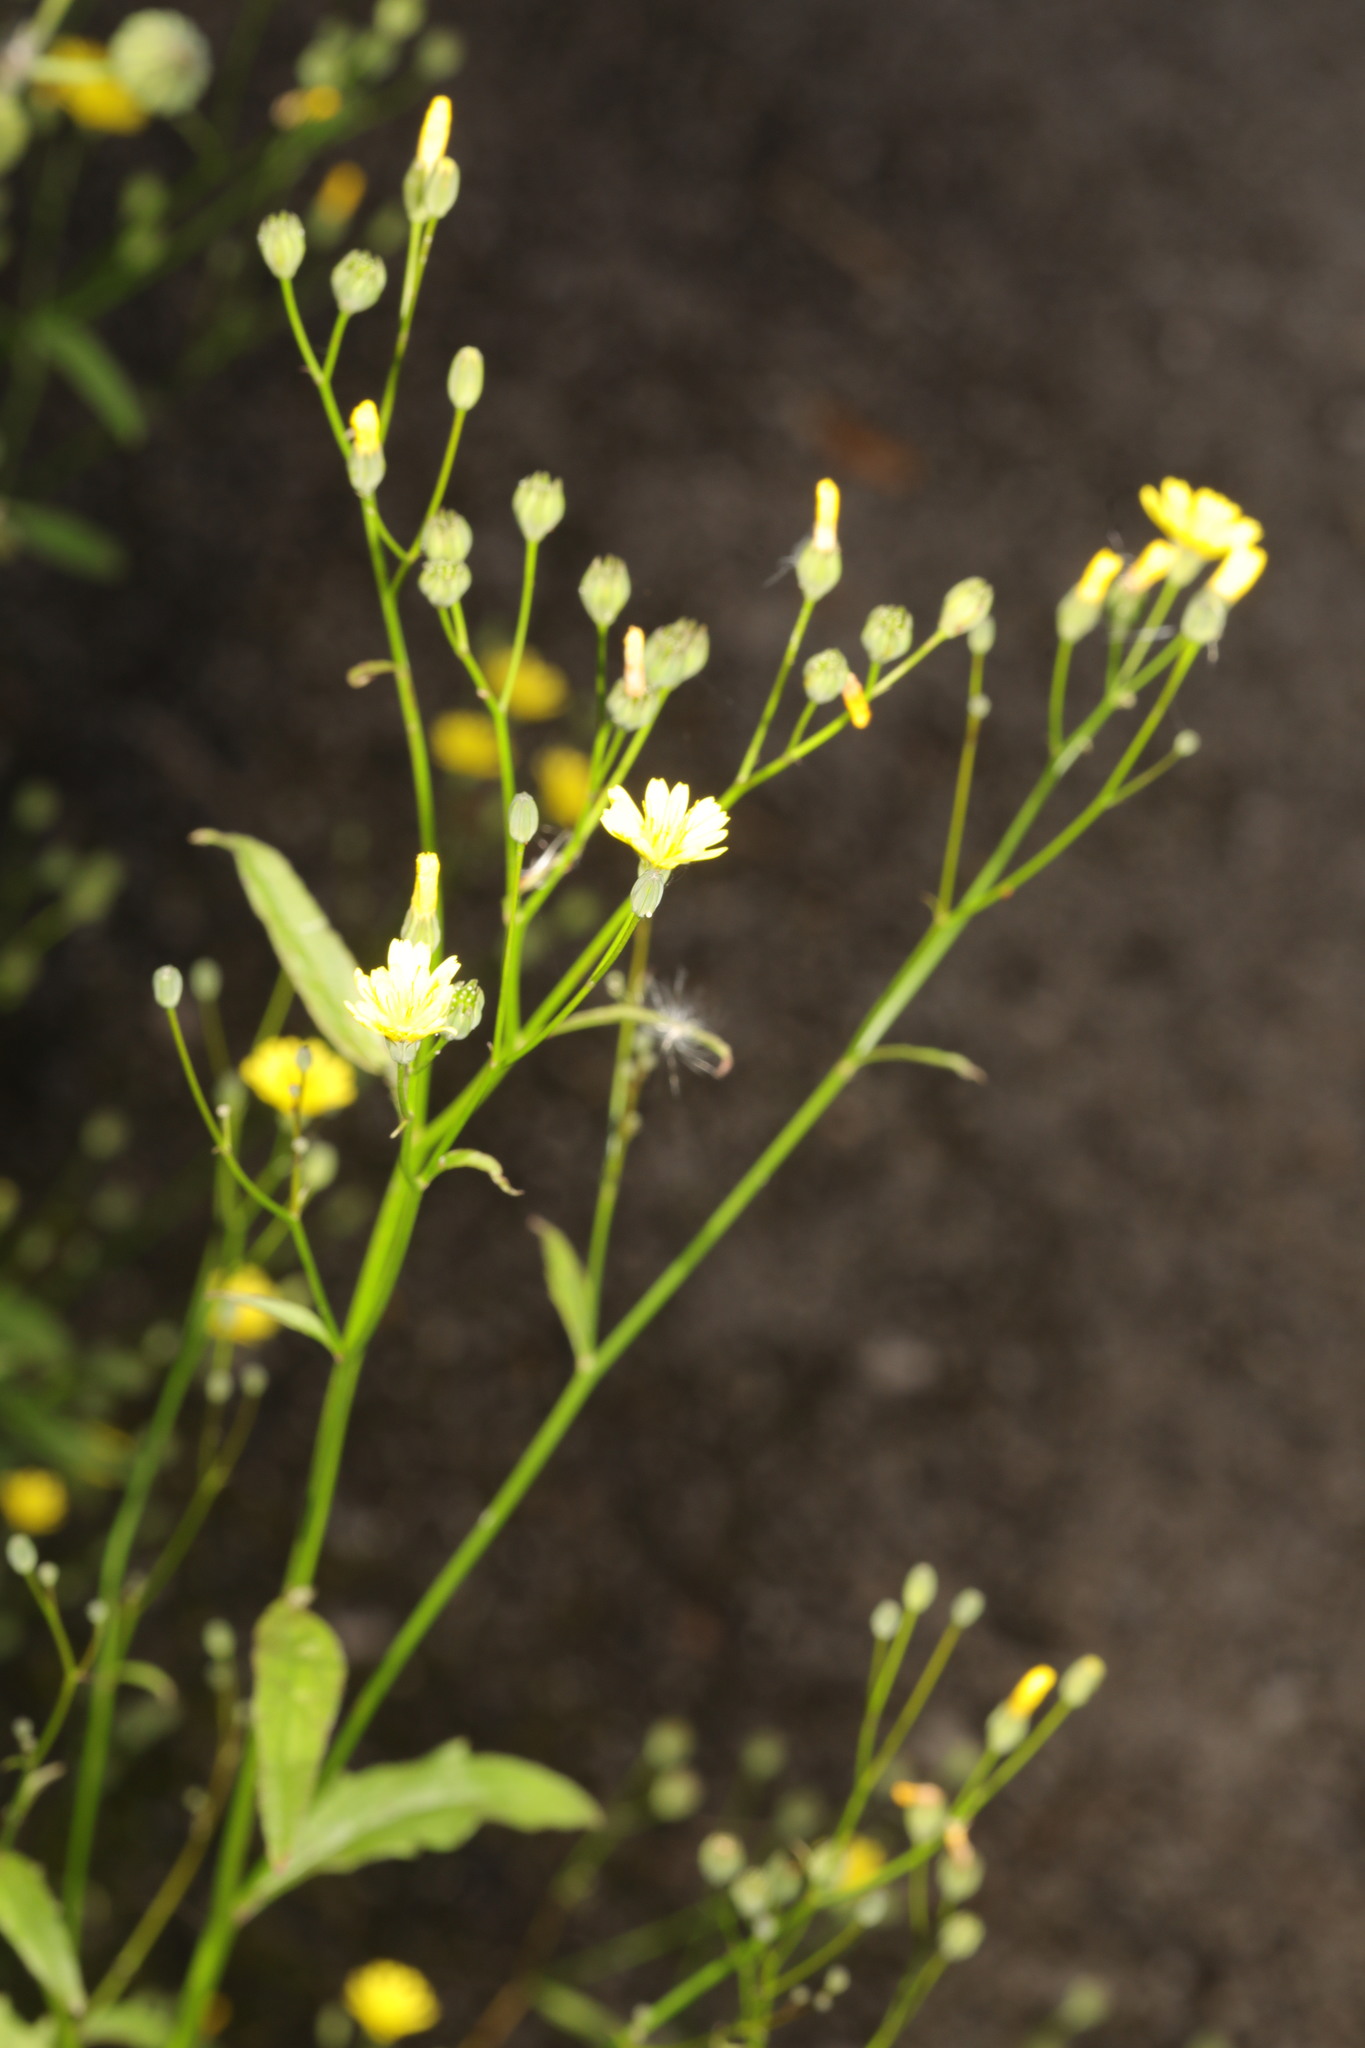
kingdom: Plantae
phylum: Tracheophyta
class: Magnoliopsida
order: Asterales
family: Asteraceae
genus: Lapsana
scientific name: Lapsana communis
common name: Nipplewort
